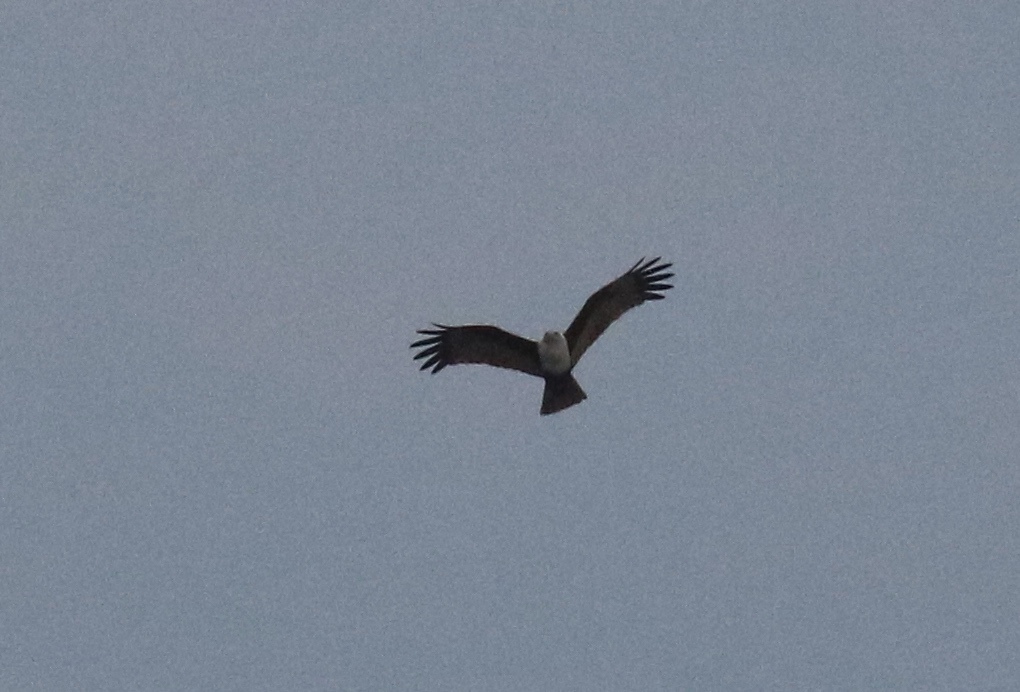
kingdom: Animalia
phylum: Chordata
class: Aves
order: Accipitriformes
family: Accipitridae
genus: Haliastur
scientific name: Haliastur indus
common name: Brahminy kite
